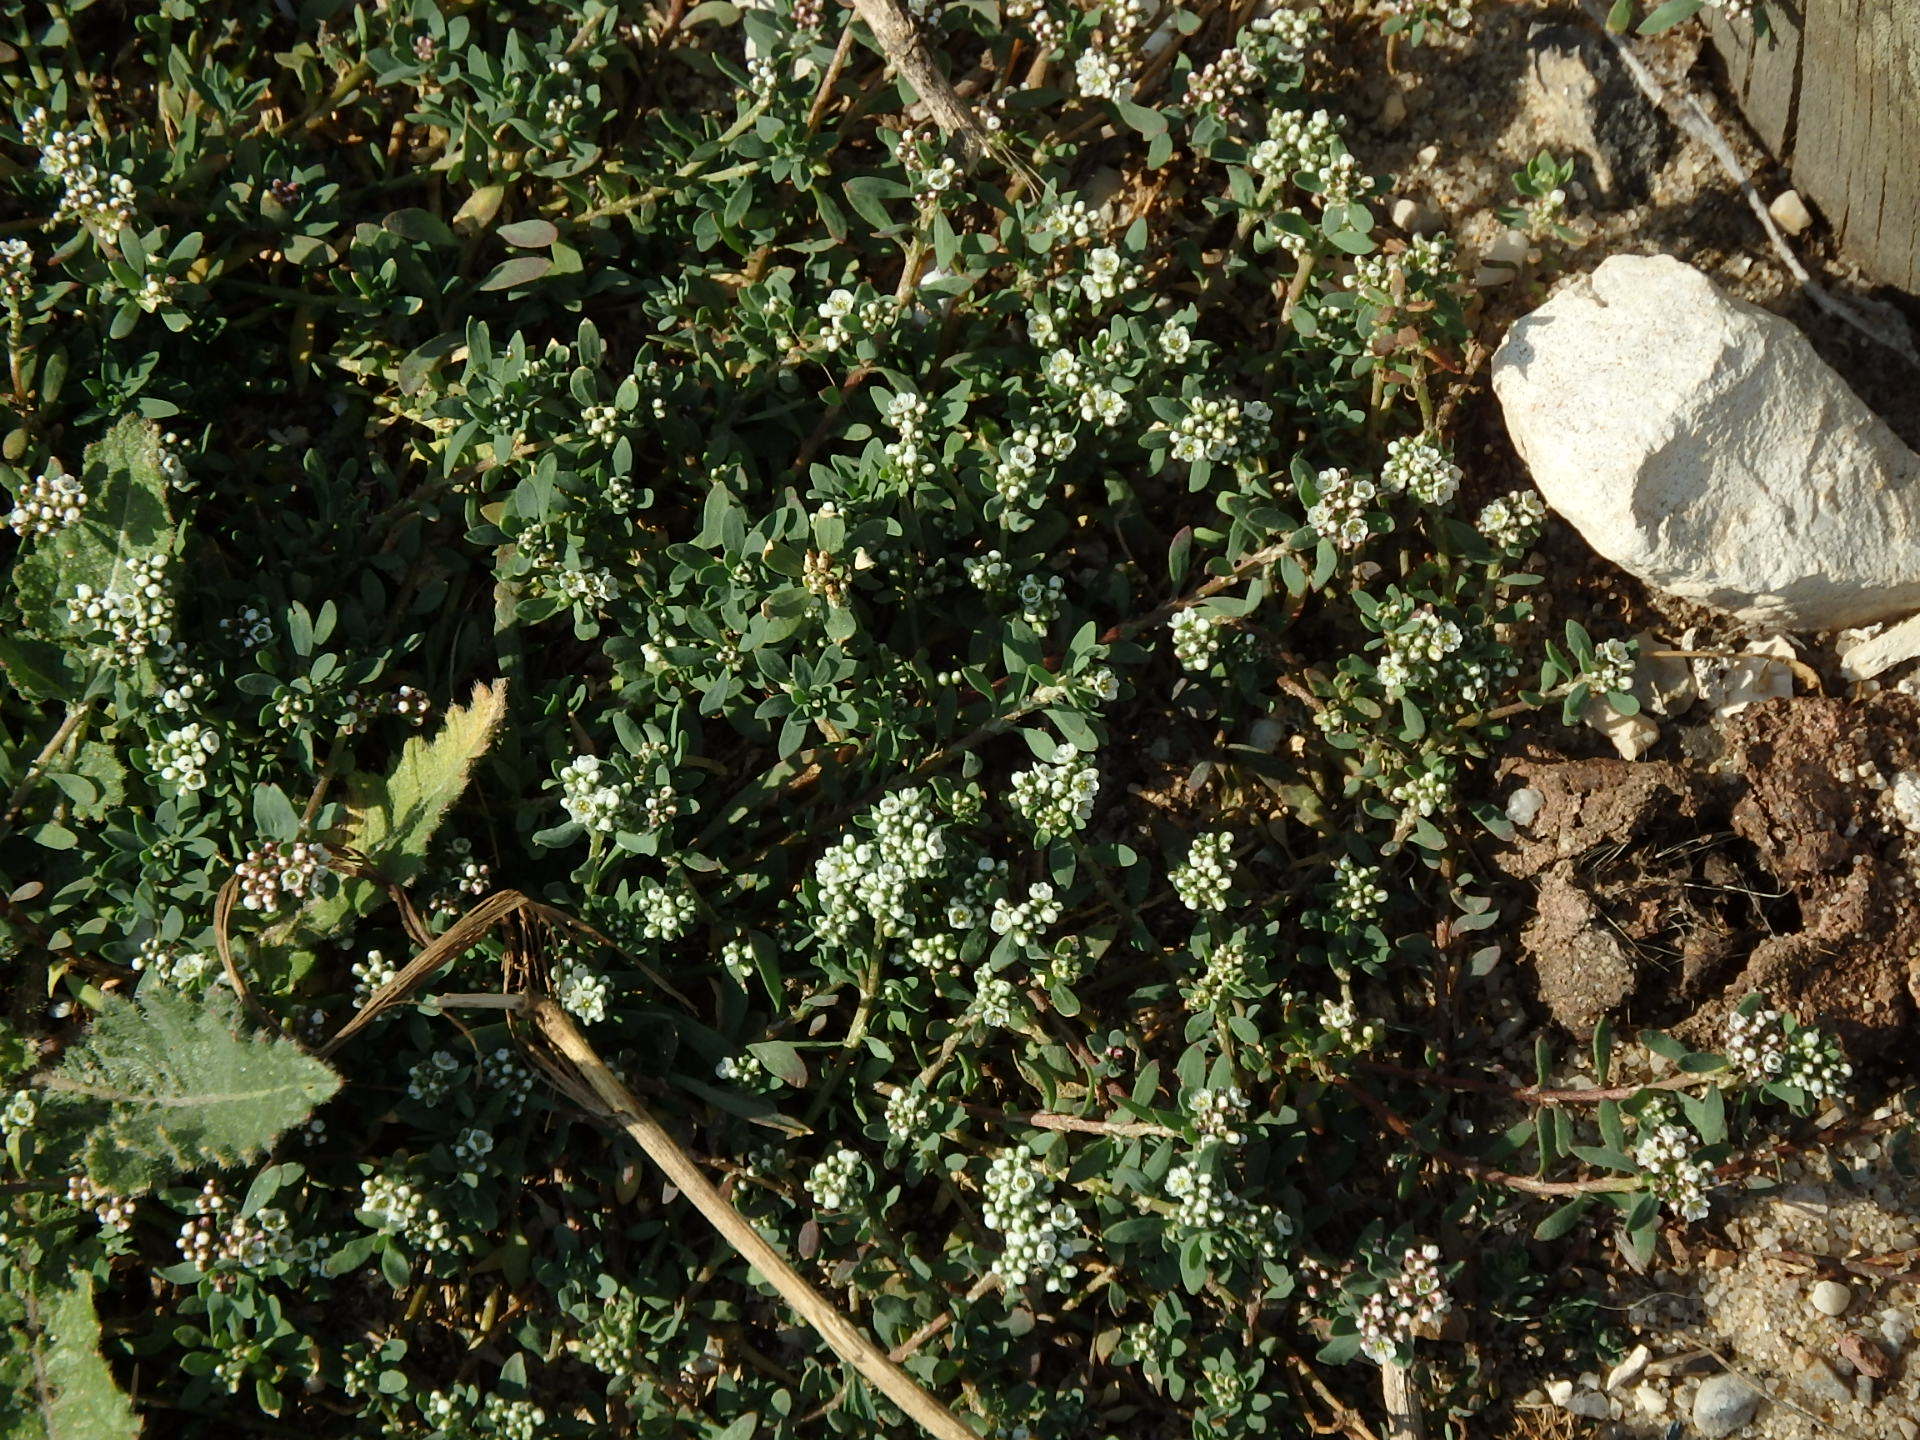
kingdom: Plantae
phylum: Tracheophyta
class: Magnoliopsida
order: Caryophyllales
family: Caryophyllaceae
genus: Corrigiola
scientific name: Corrigiola litoralis
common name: Strapwort
